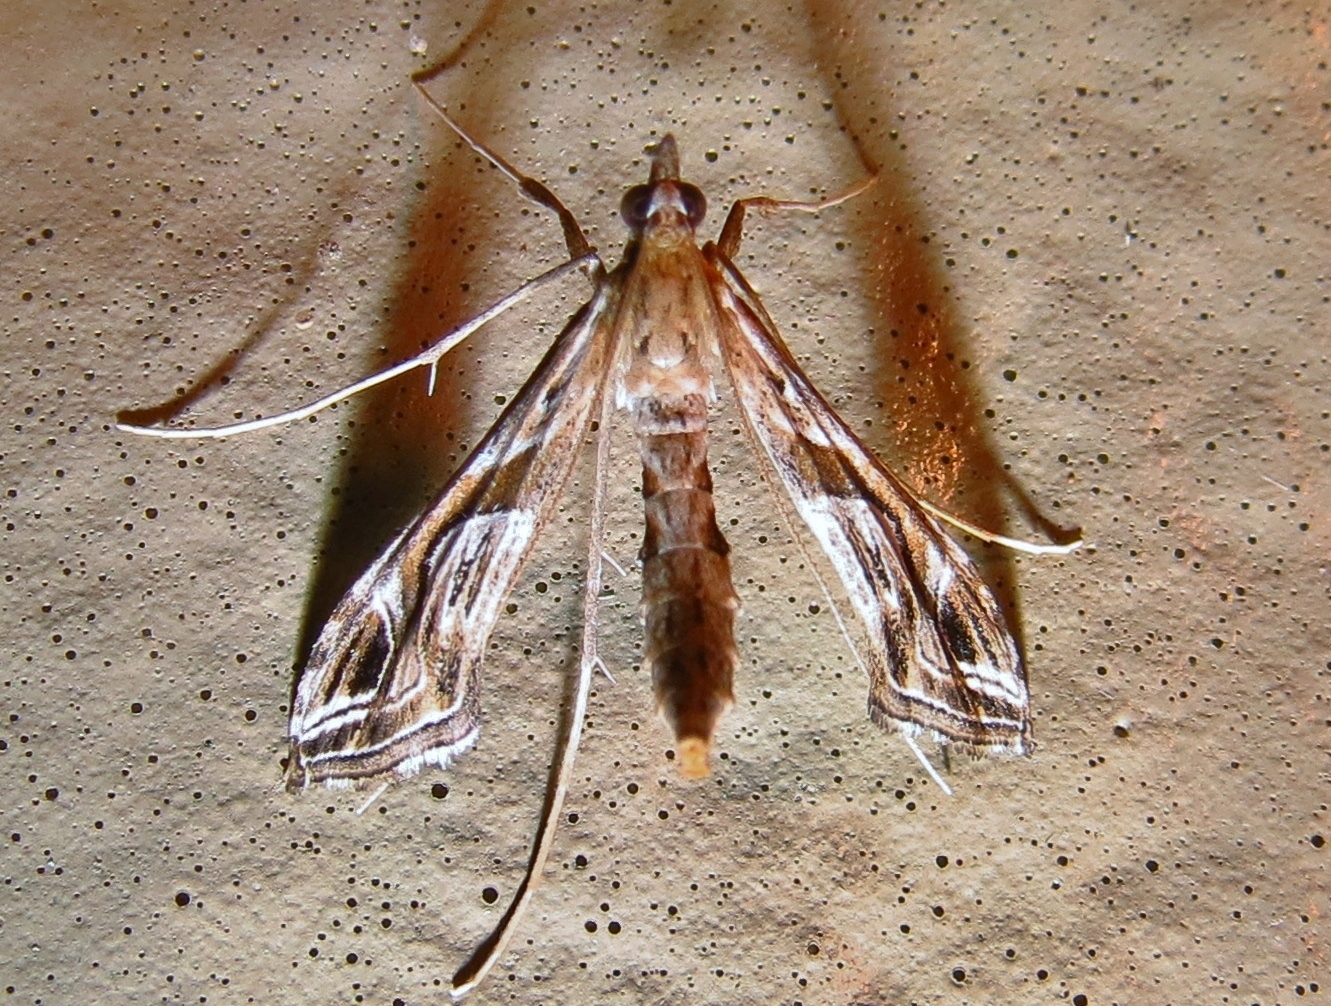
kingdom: Animalia
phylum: Arthropoda
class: Insecta
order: Lepidoptera
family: Crambidae
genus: Lineodes
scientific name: Lineodes integra
